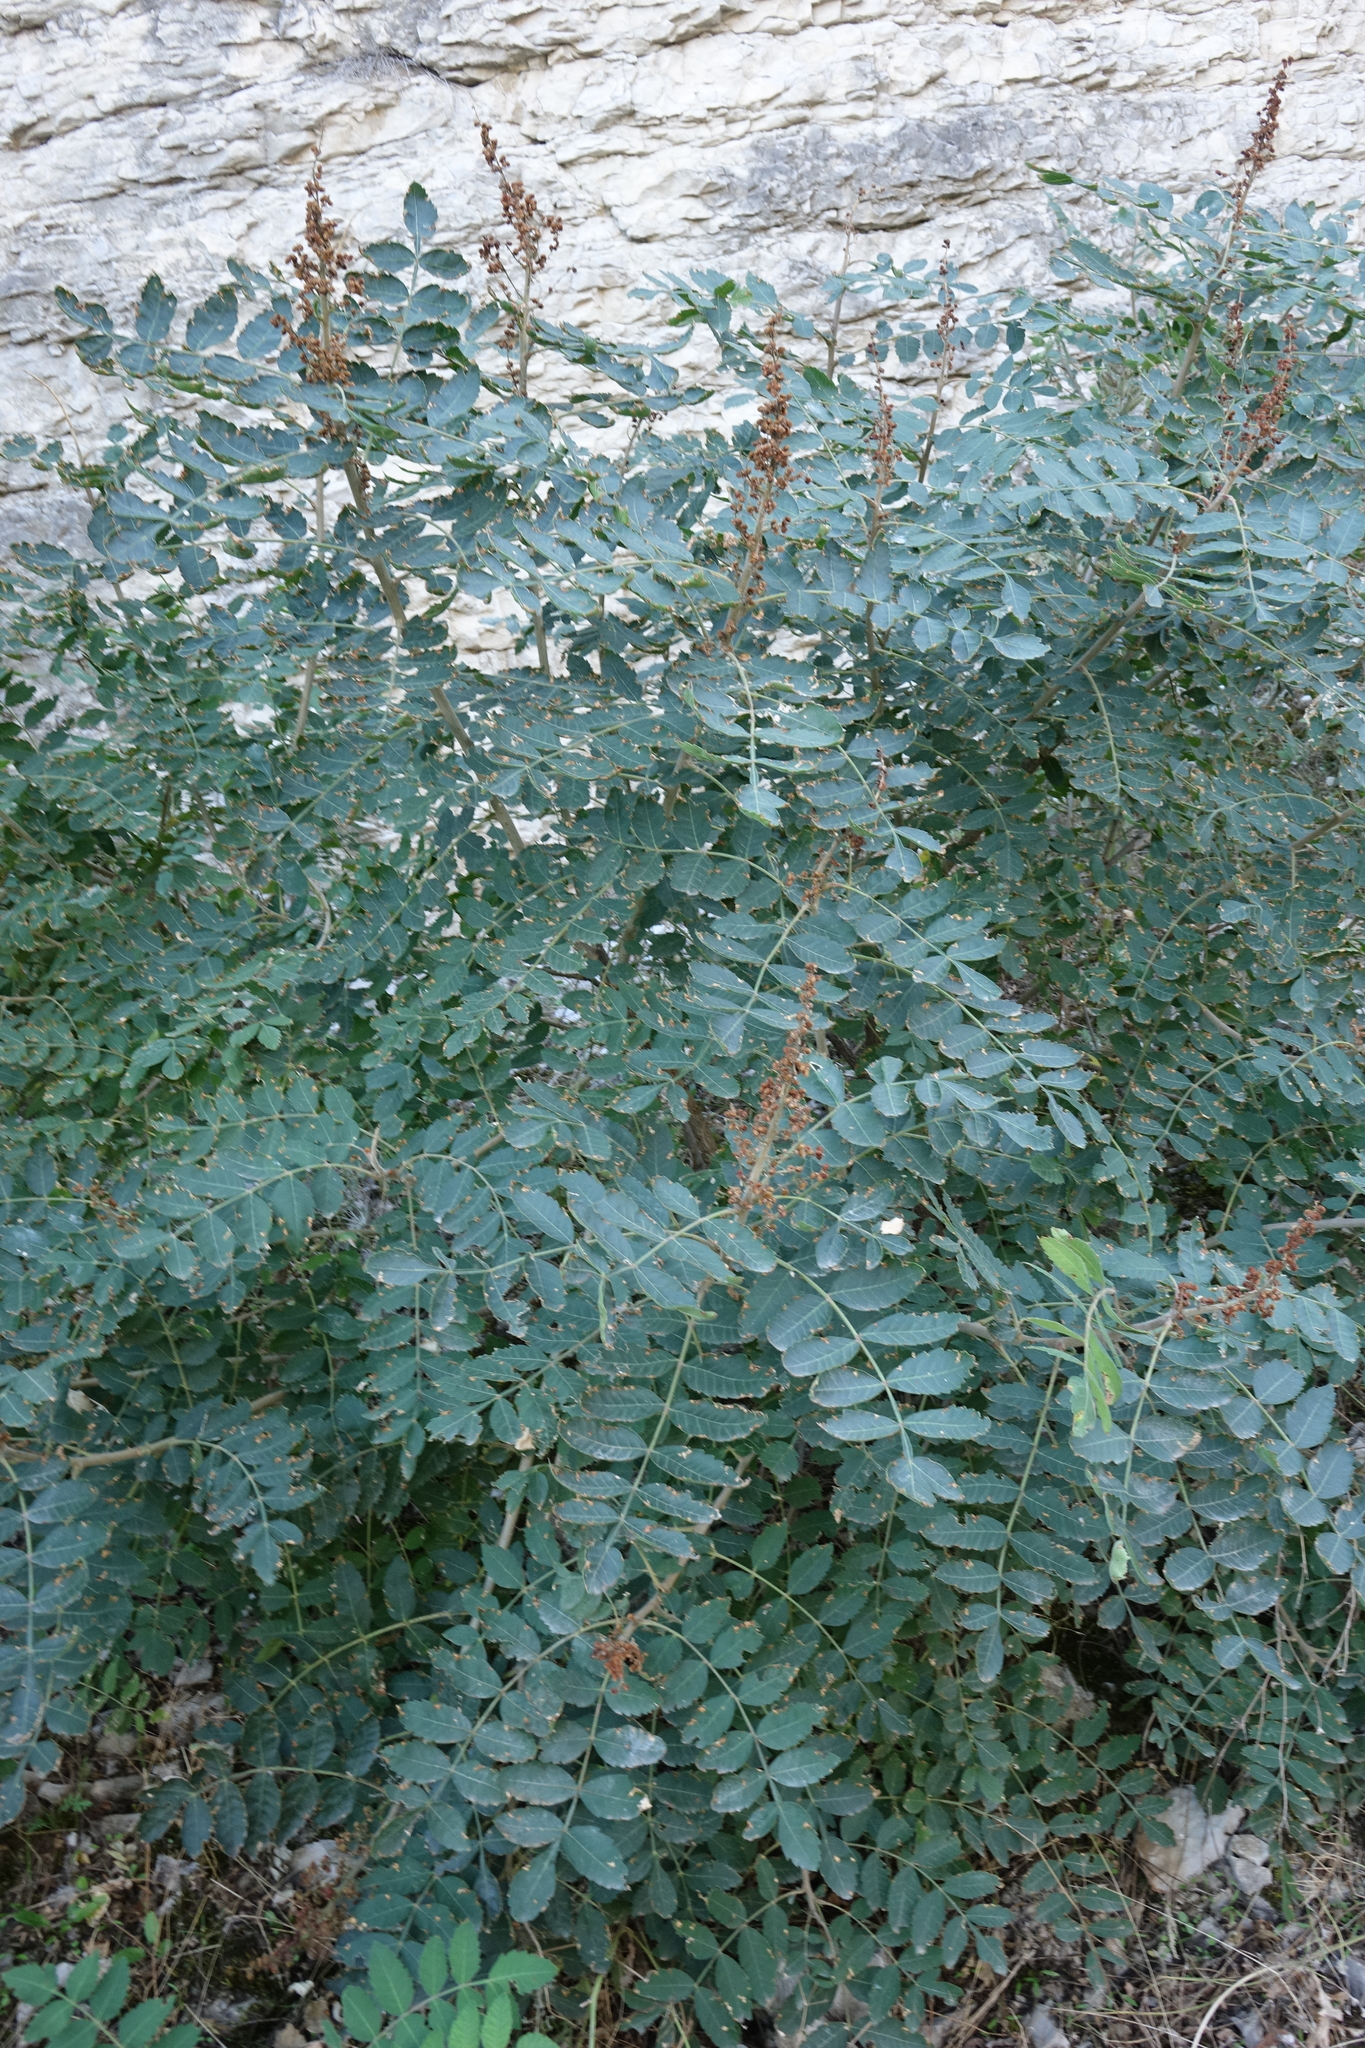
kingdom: Plantae
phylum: Tracheophyta
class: Magnoliopsida
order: Fabales
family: Fabaceae
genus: Amorpha
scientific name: Amorpha fruticosa
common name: False indigo
